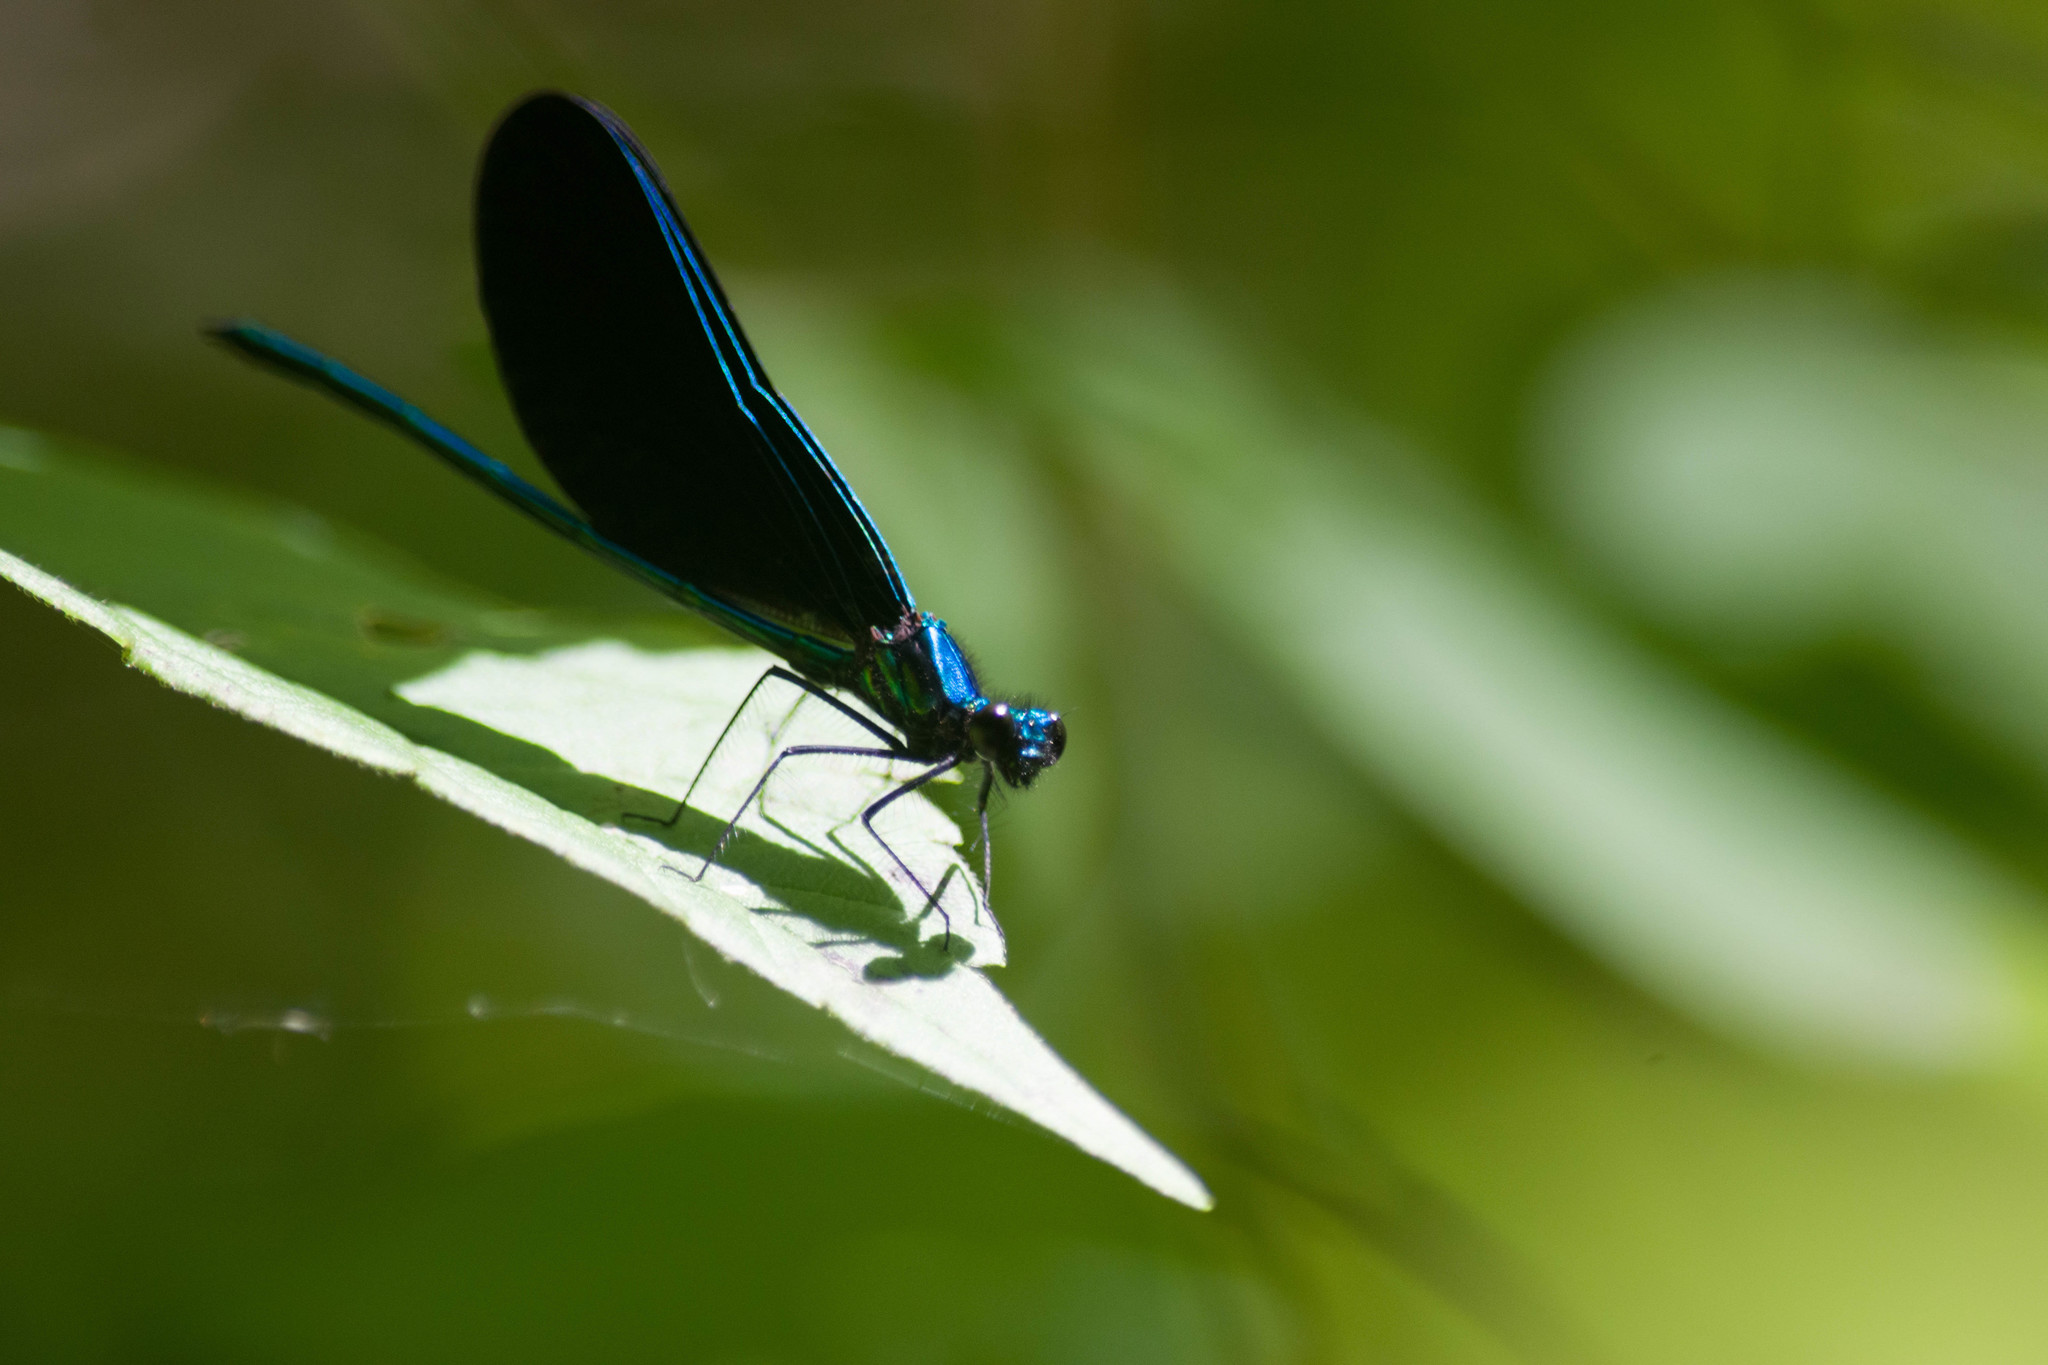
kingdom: Animalia
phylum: Arthropoda
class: Insecta
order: Odonata
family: Calopterygidae
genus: Calopteryx
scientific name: Calopteryx maculata
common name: Ebony jewelwing
